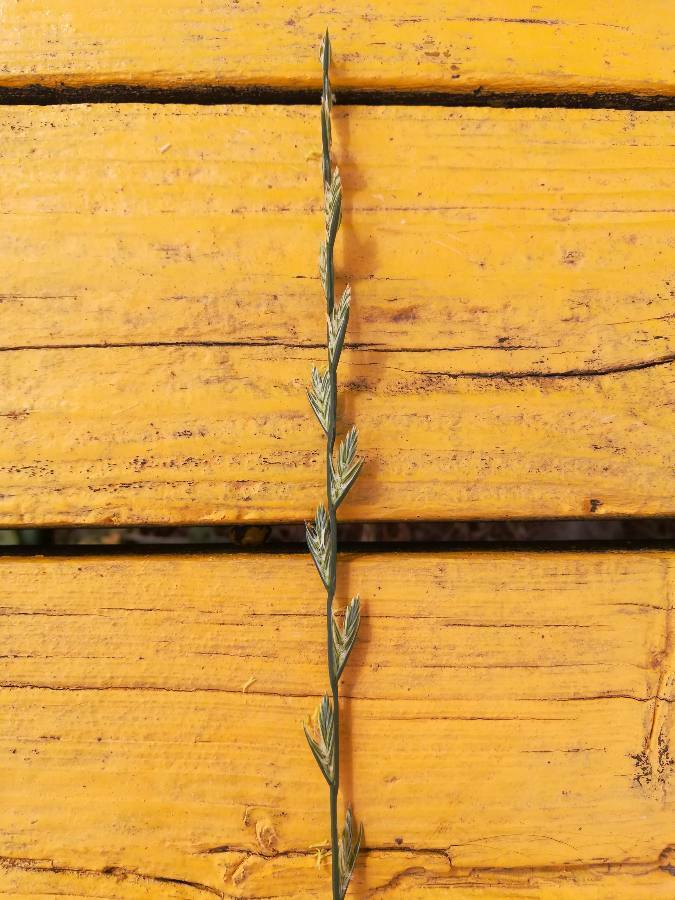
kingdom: Plantae
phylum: Tracheophyta
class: Liliopsida
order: Poales
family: Poaceae
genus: Lolium
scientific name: Lolium perenne
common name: Perennial ryegrass
